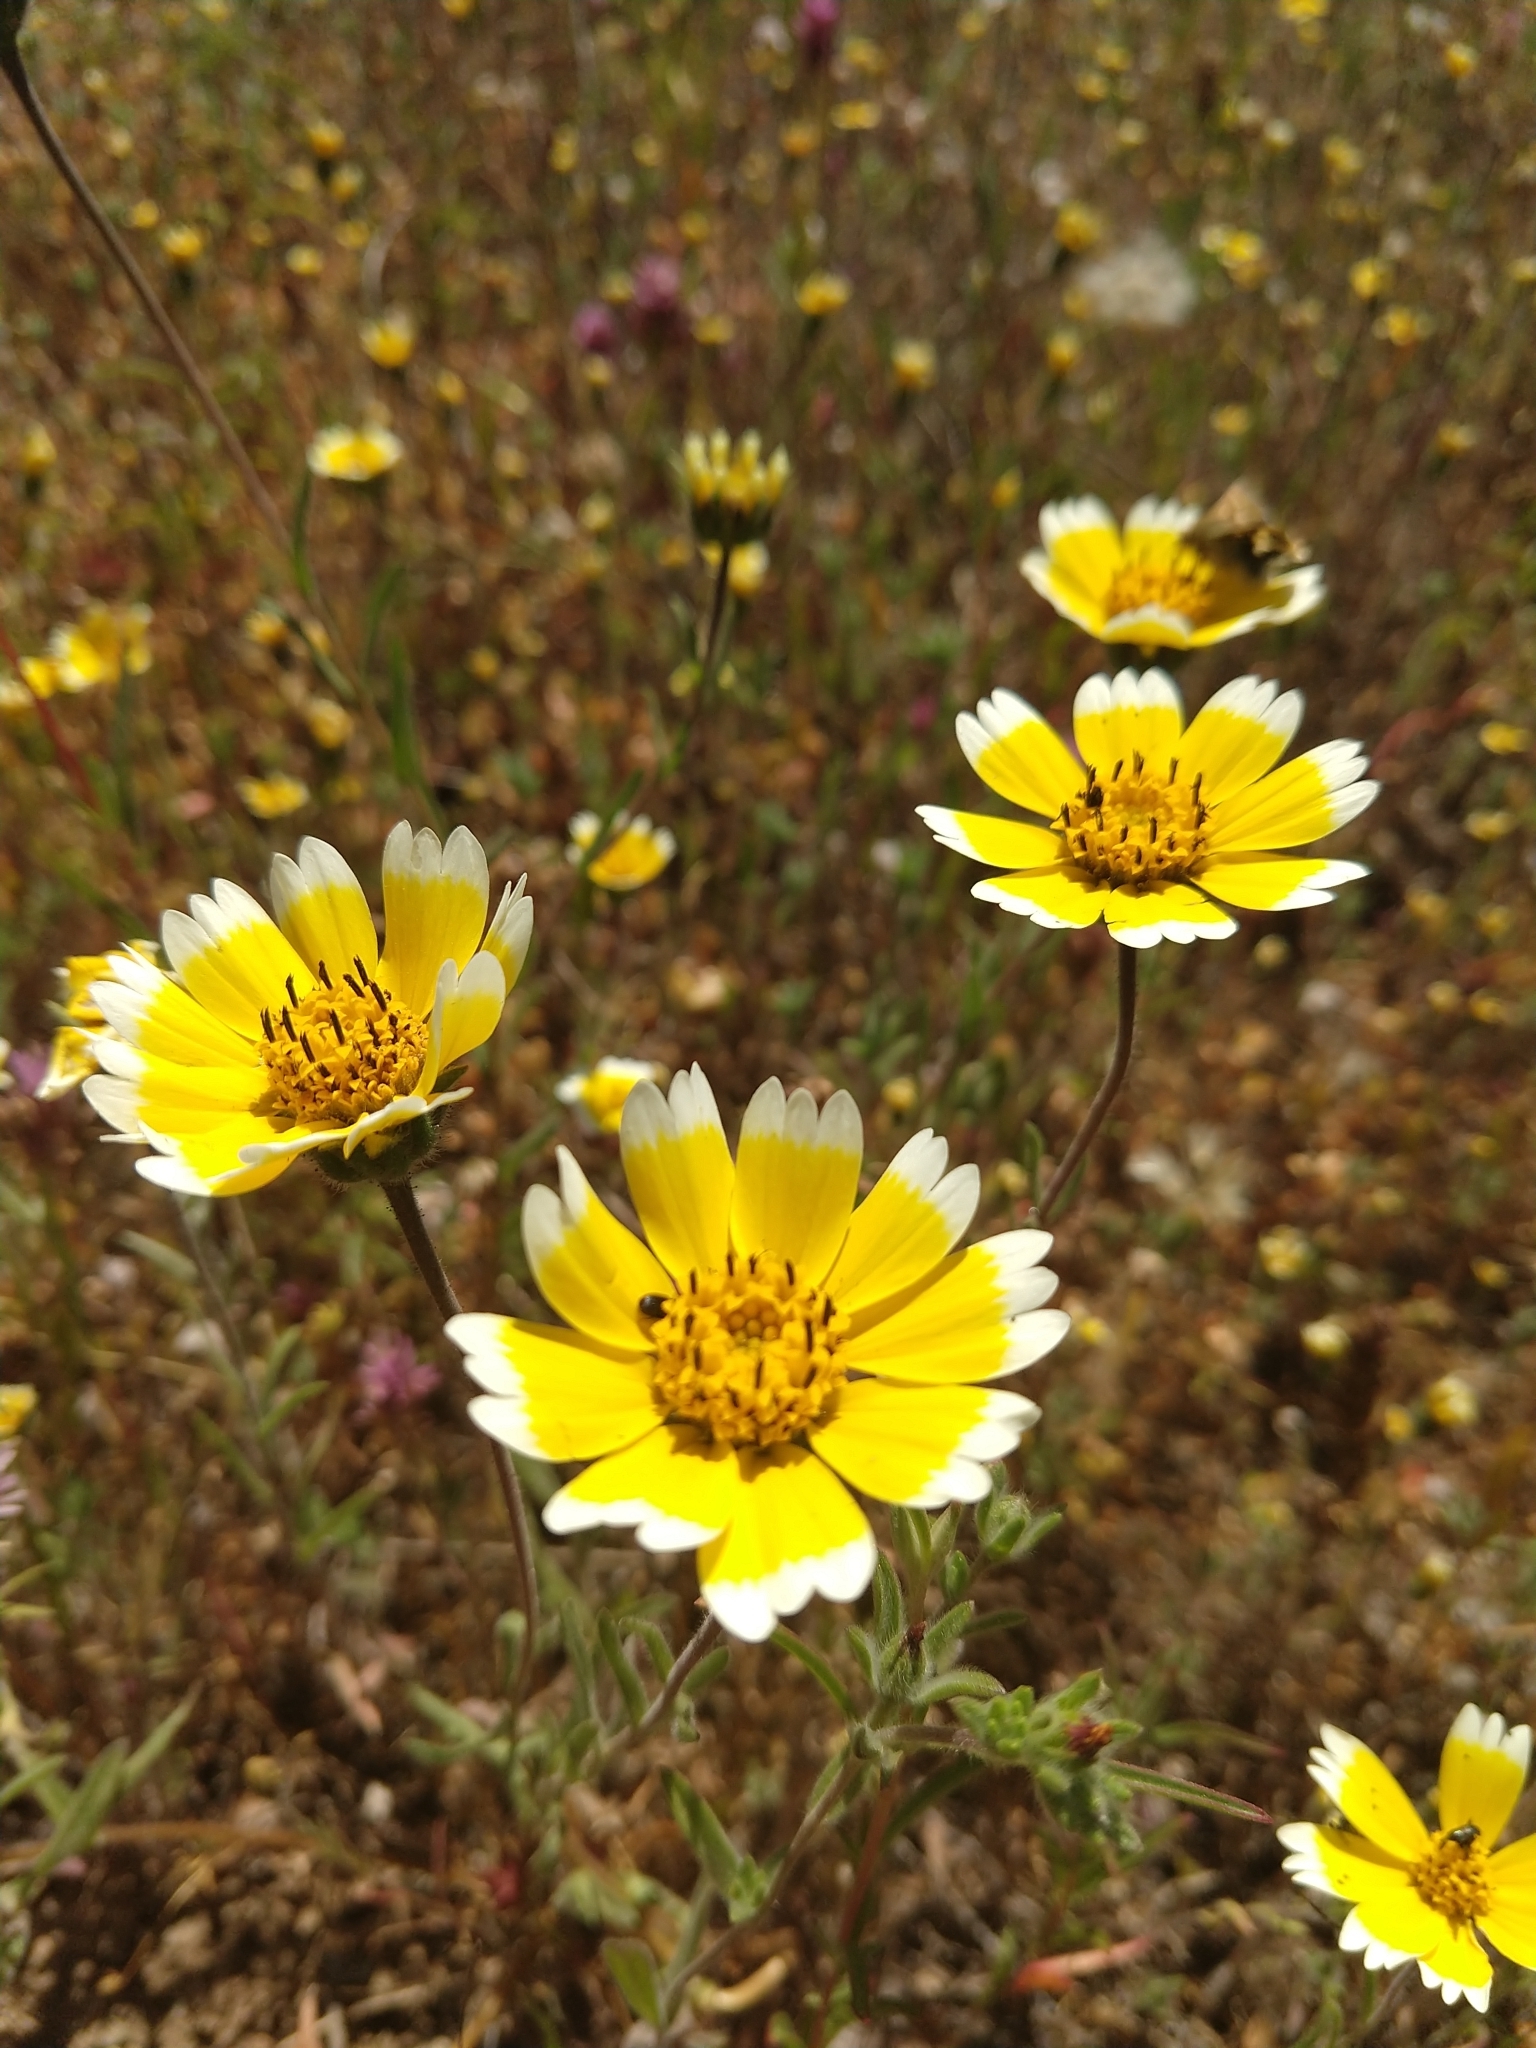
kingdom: Plantae
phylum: Tracheophyta
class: Magnoliopsida
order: Asterales
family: Asteraceae
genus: Layia
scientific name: Layia platyglossa
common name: Tidy-tips
